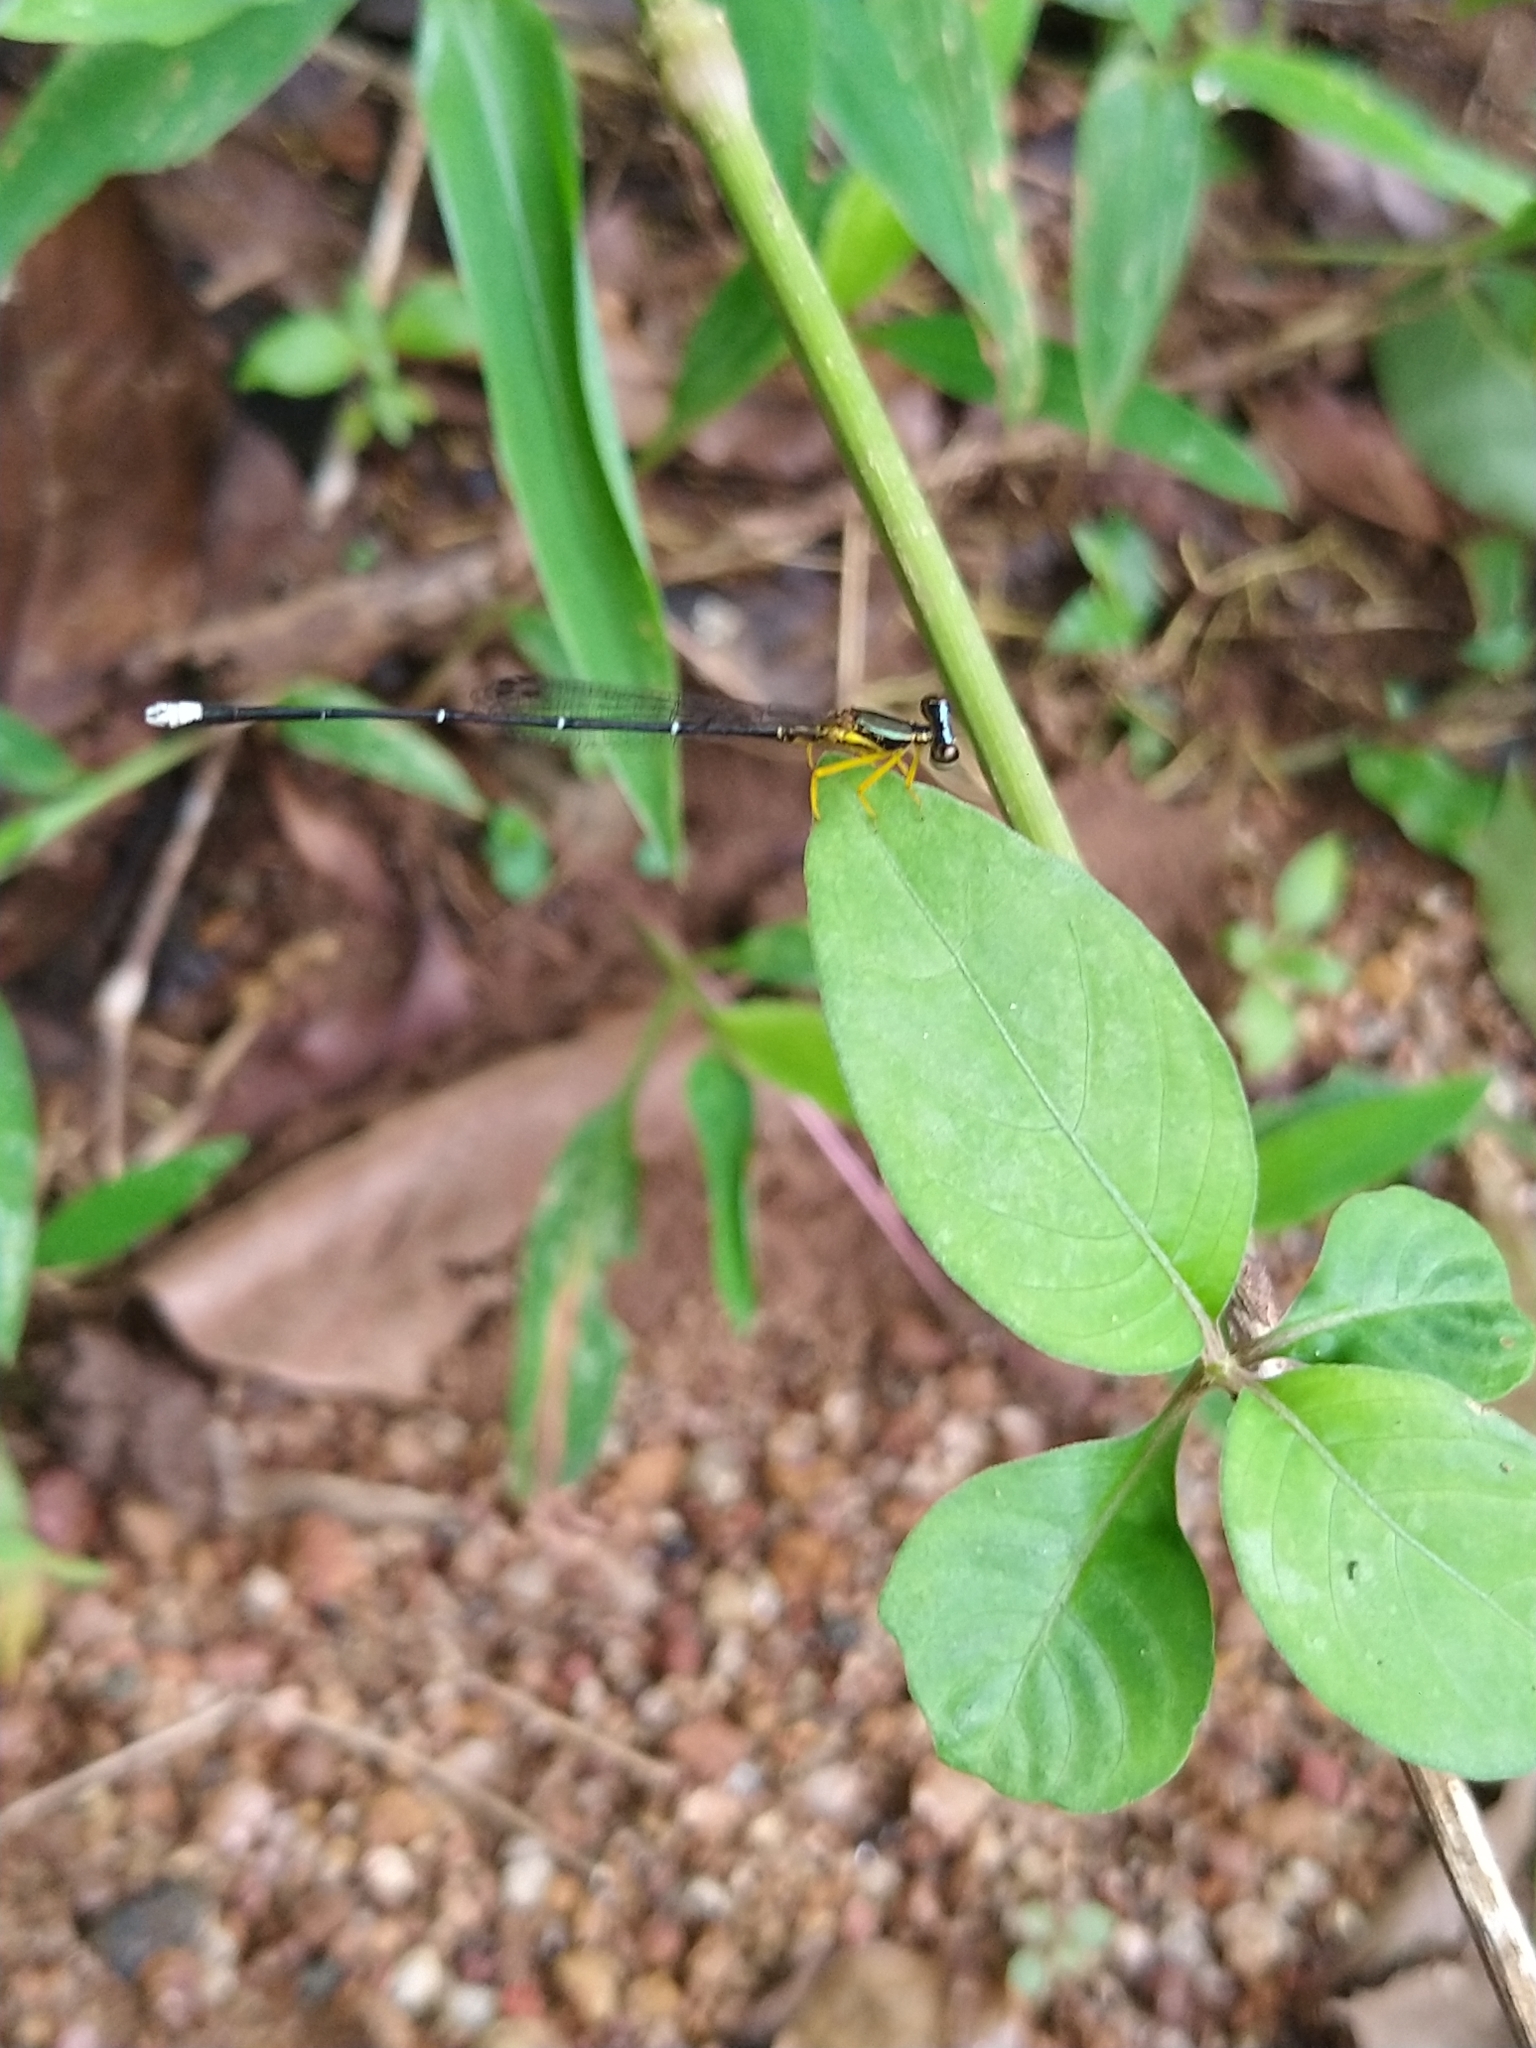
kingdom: Animalia
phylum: Arthropoda
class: Insecta
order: Odonata
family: Platycnemididae
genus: Copera
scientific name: Copera vittata
